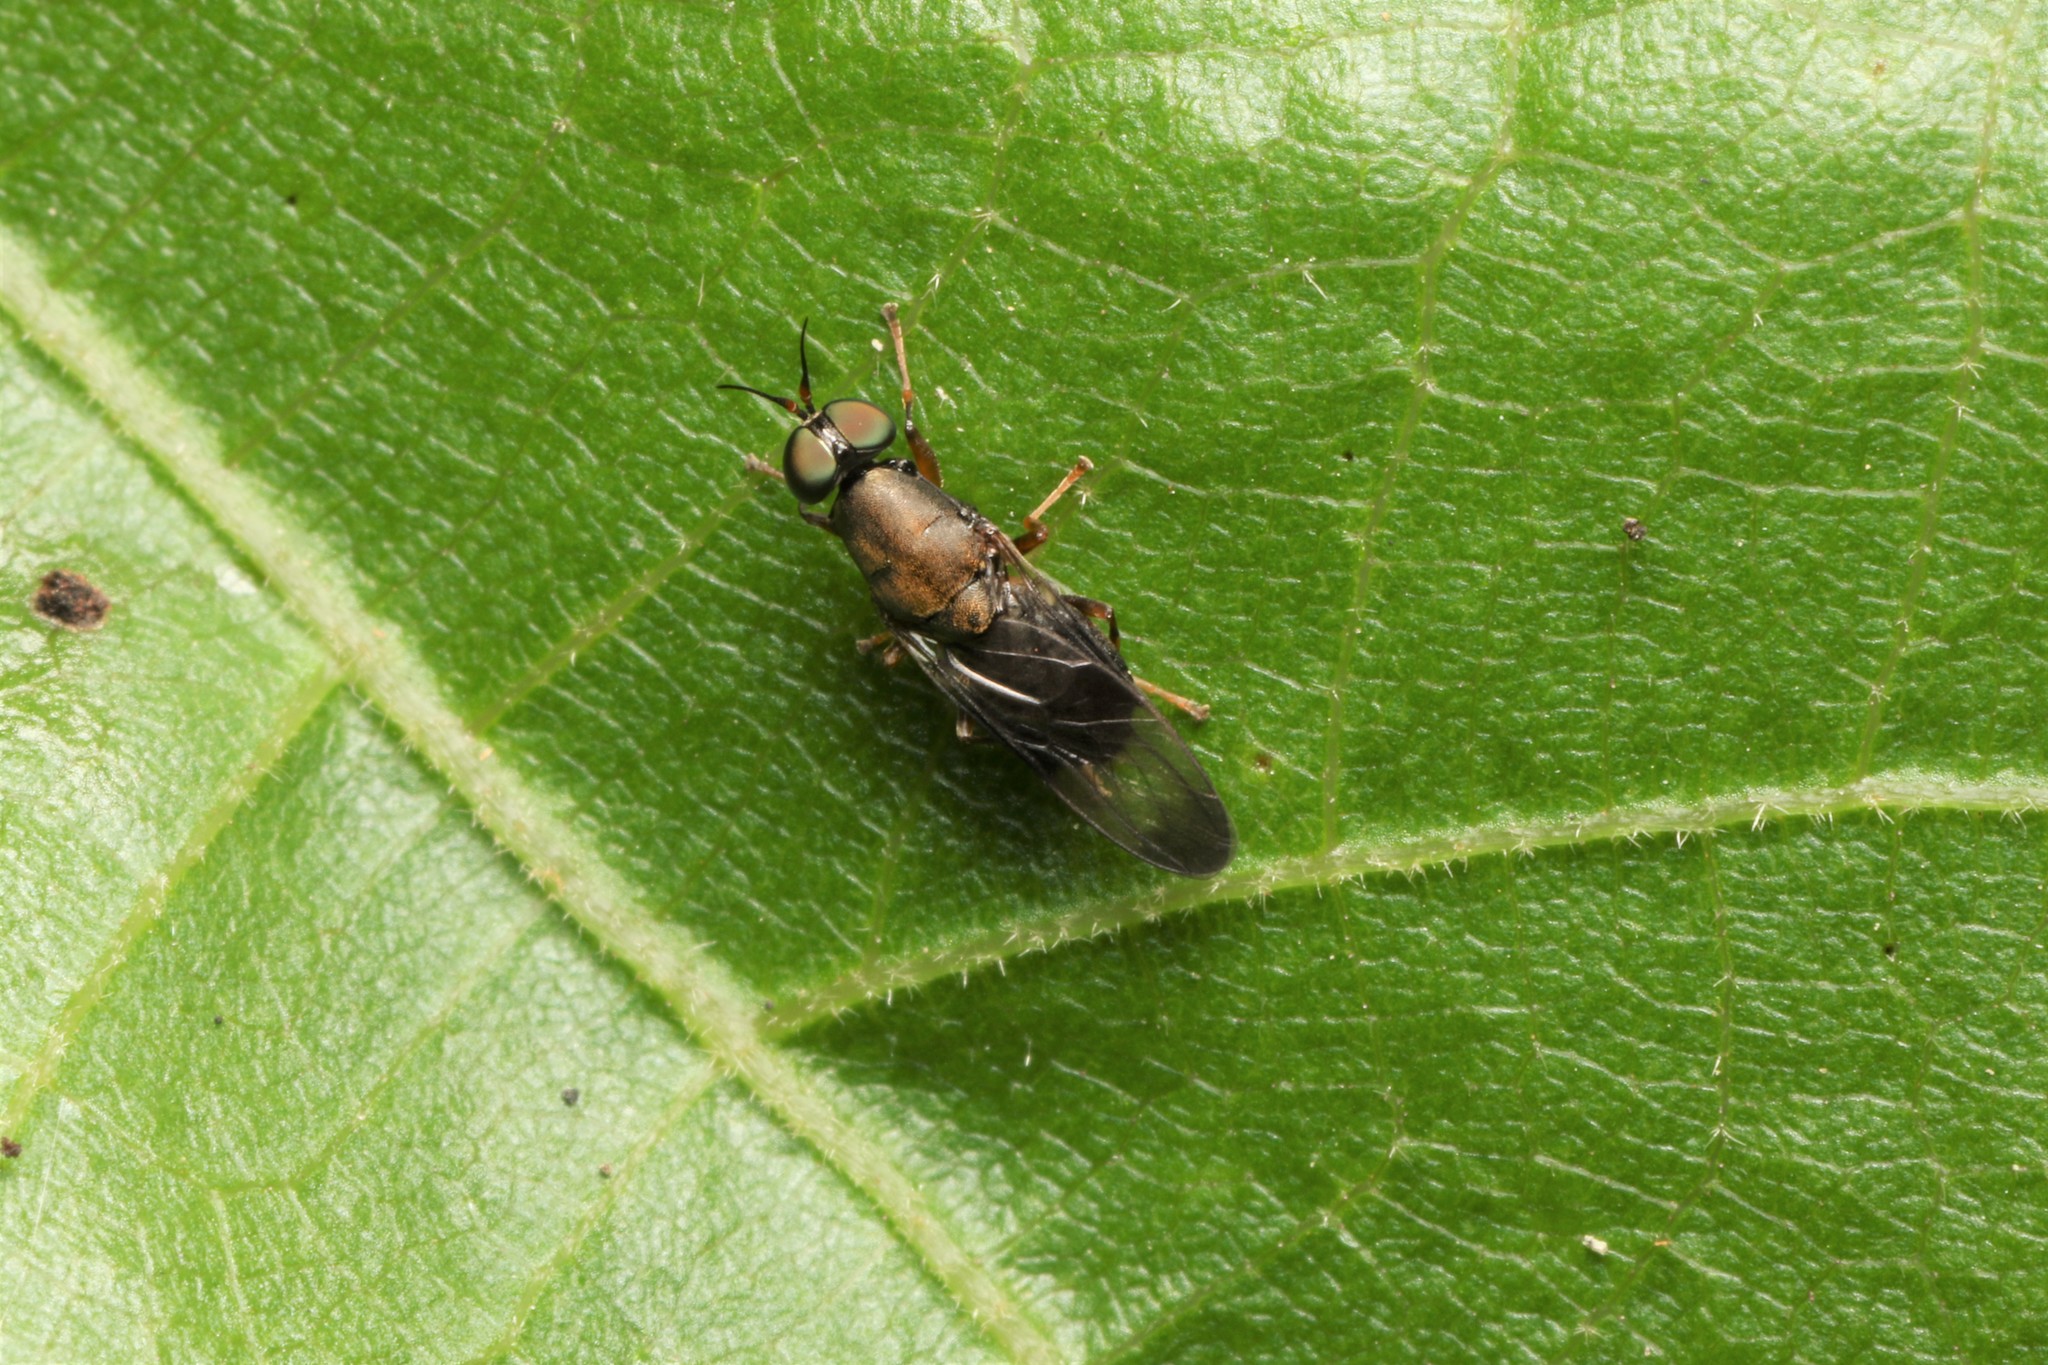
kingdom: Animalia
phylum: Arthropoda
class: Insecta
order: Diptera
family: Stratiomyidae
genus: Dysbiota
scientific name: Dysbiota peregrina
